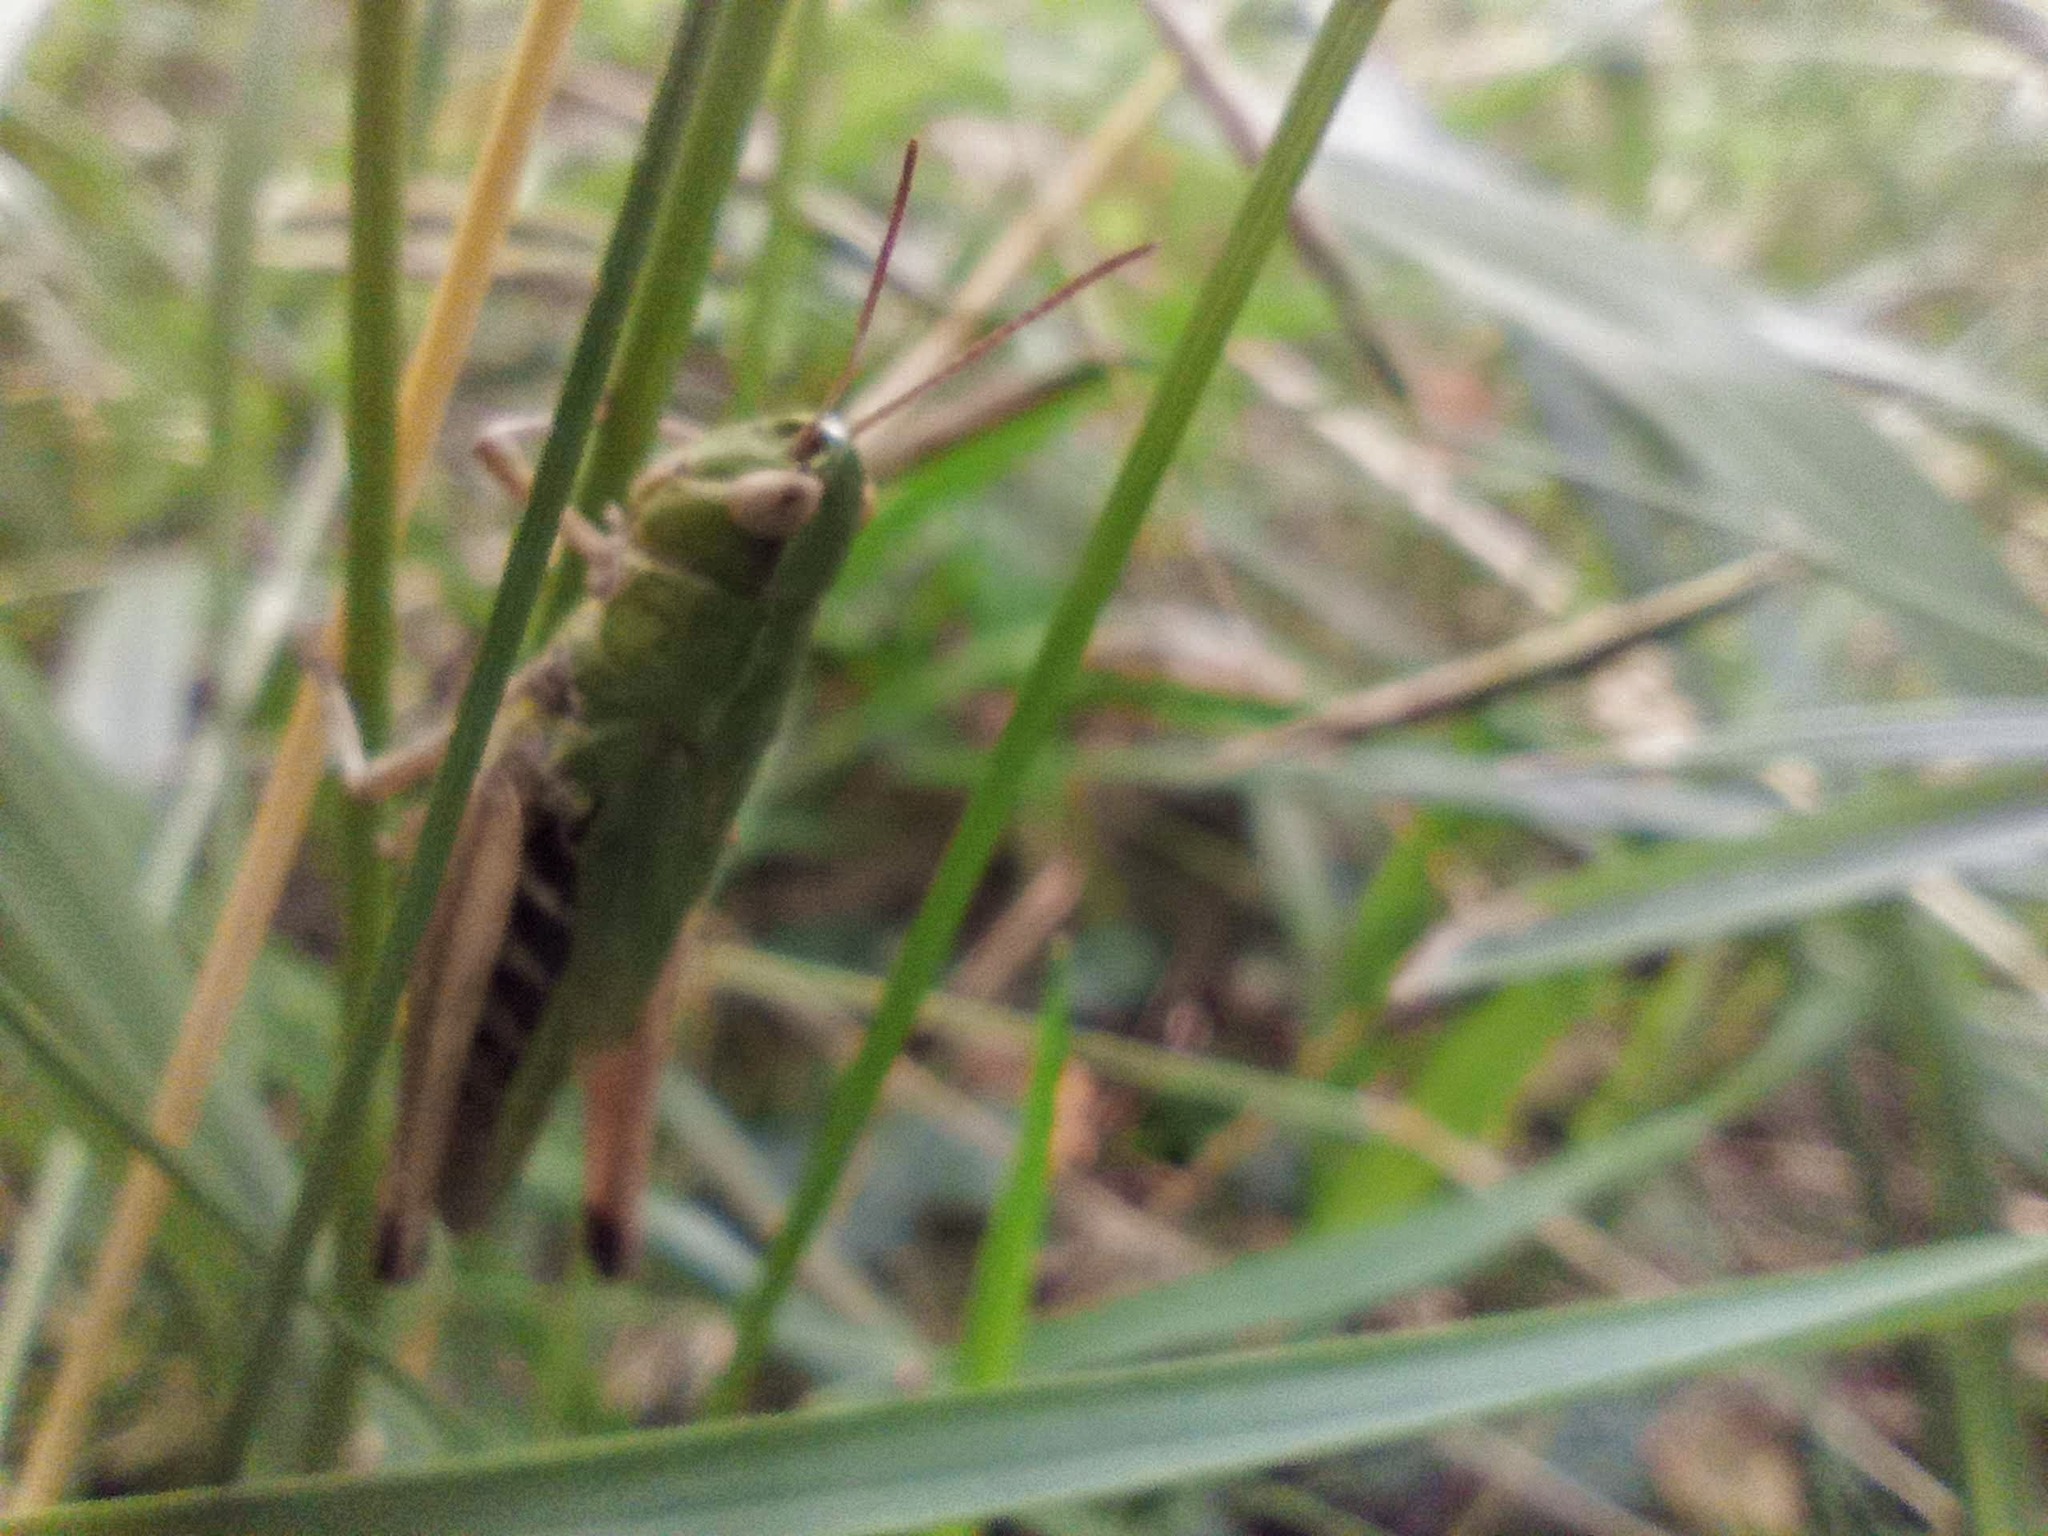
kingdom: Animalia
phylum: Arthropoda
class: Insecta
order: Orthoptera
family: Acrididae
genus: Pseudochorthippus
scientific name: Pseudochorthippus parallelus
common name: Meadow grasshopper
